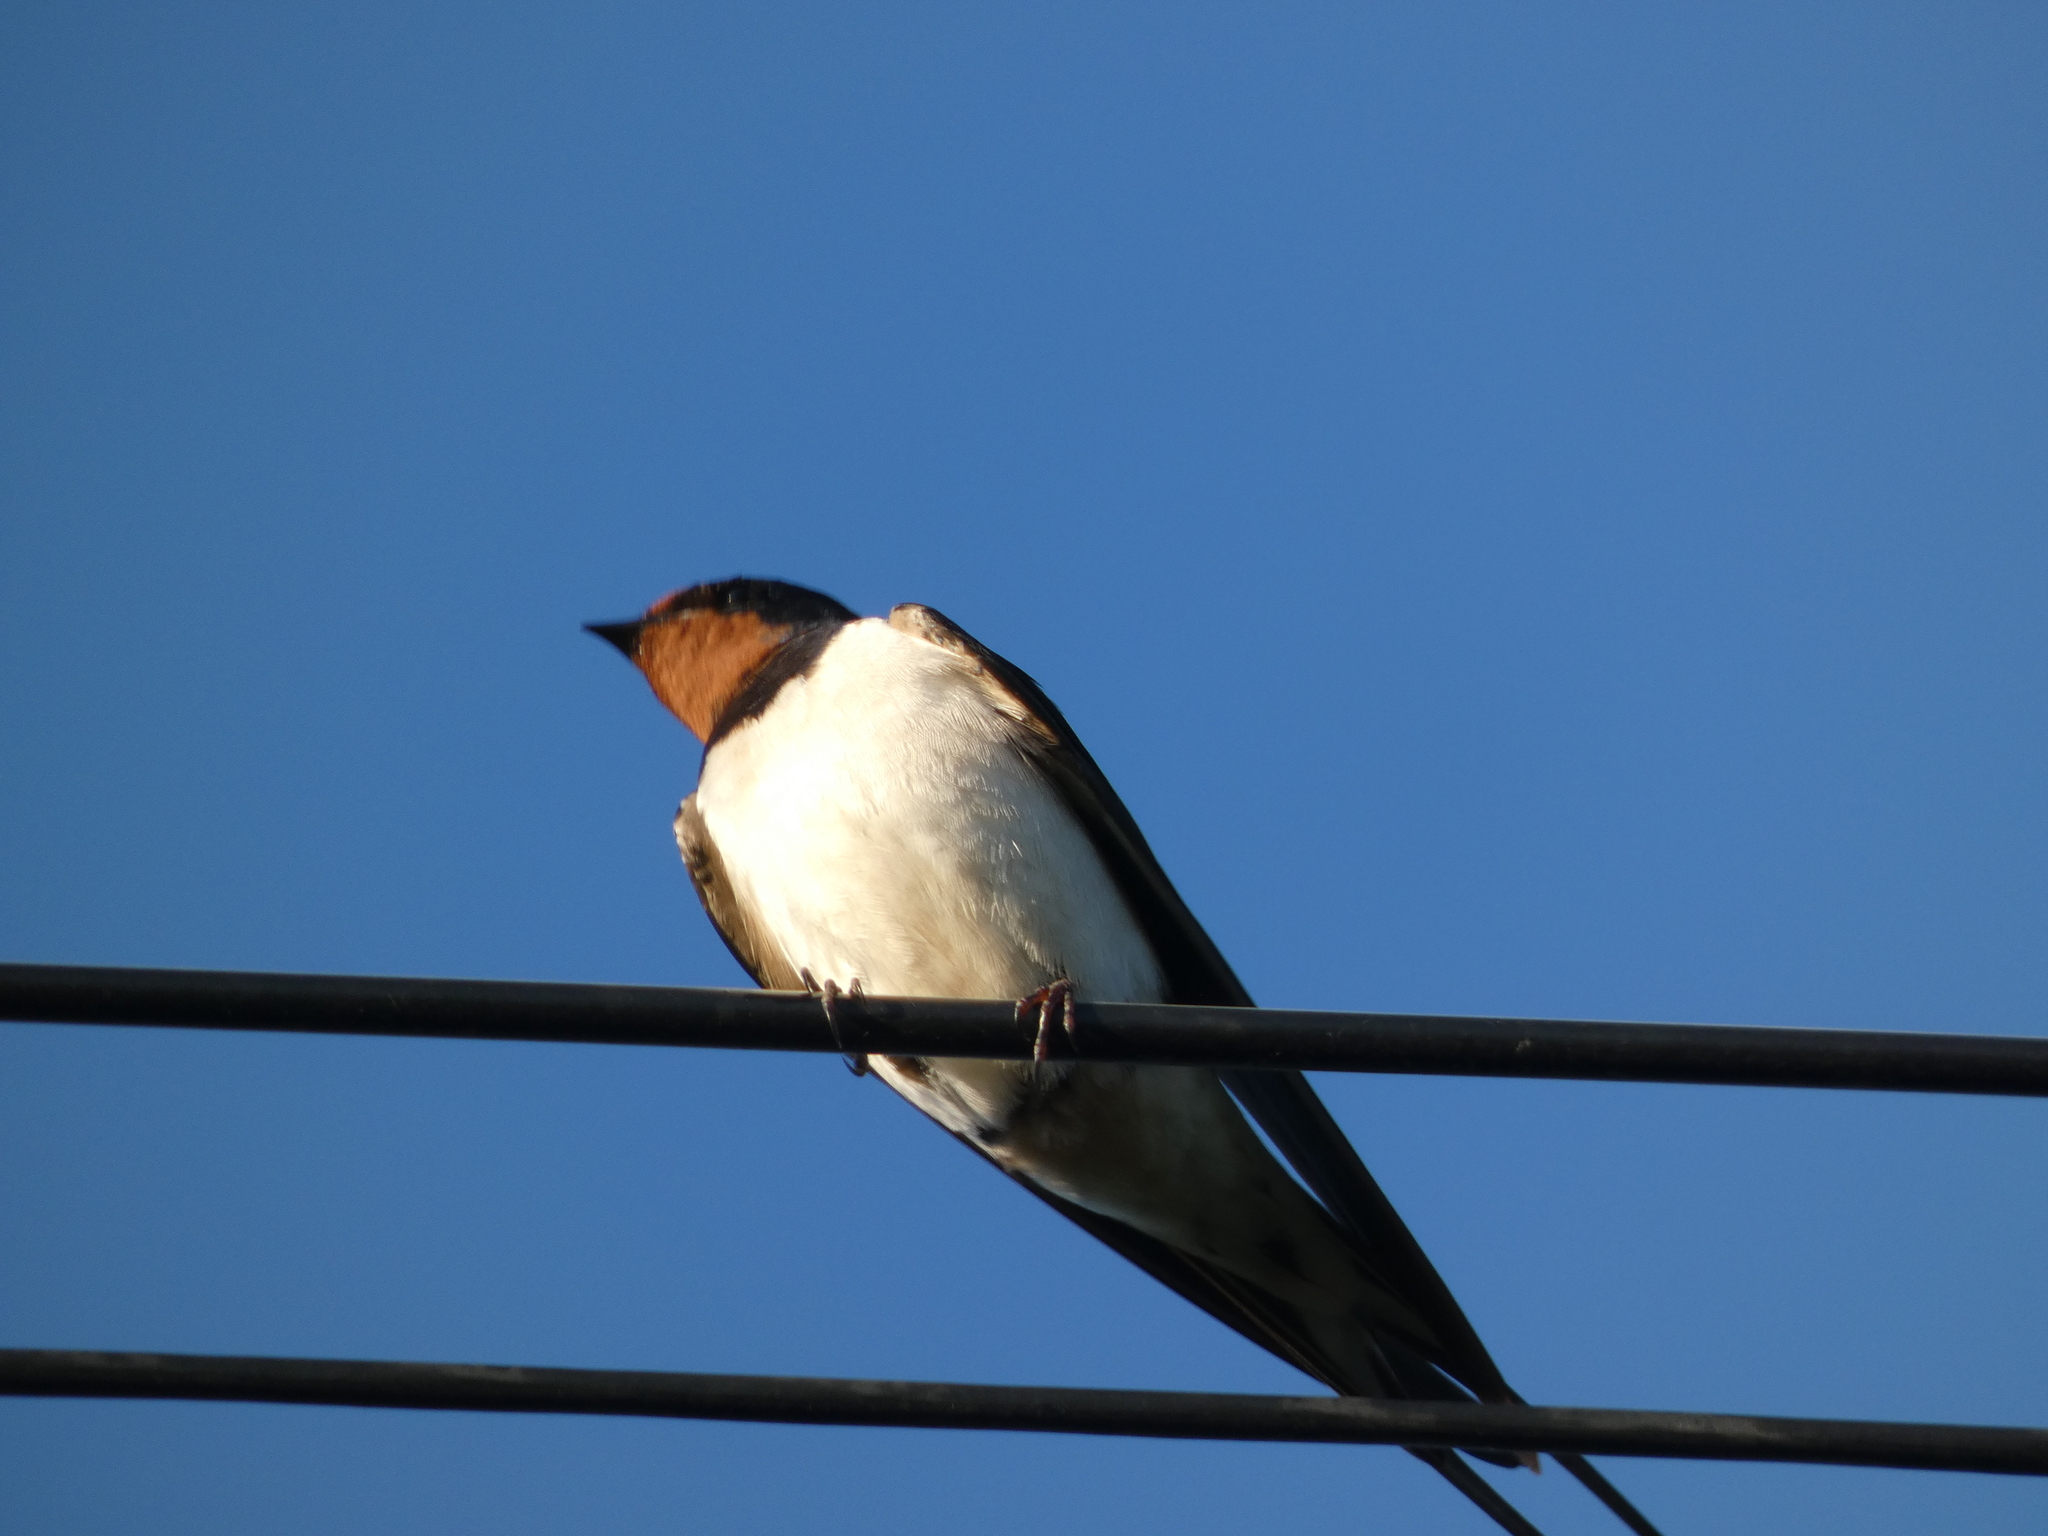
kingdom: Animalia
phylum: Chordata
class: Aves
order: Passeriformes
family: Hirundinidae
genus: Hirundo
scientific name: Hirundo rustica
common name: Barn swallow
